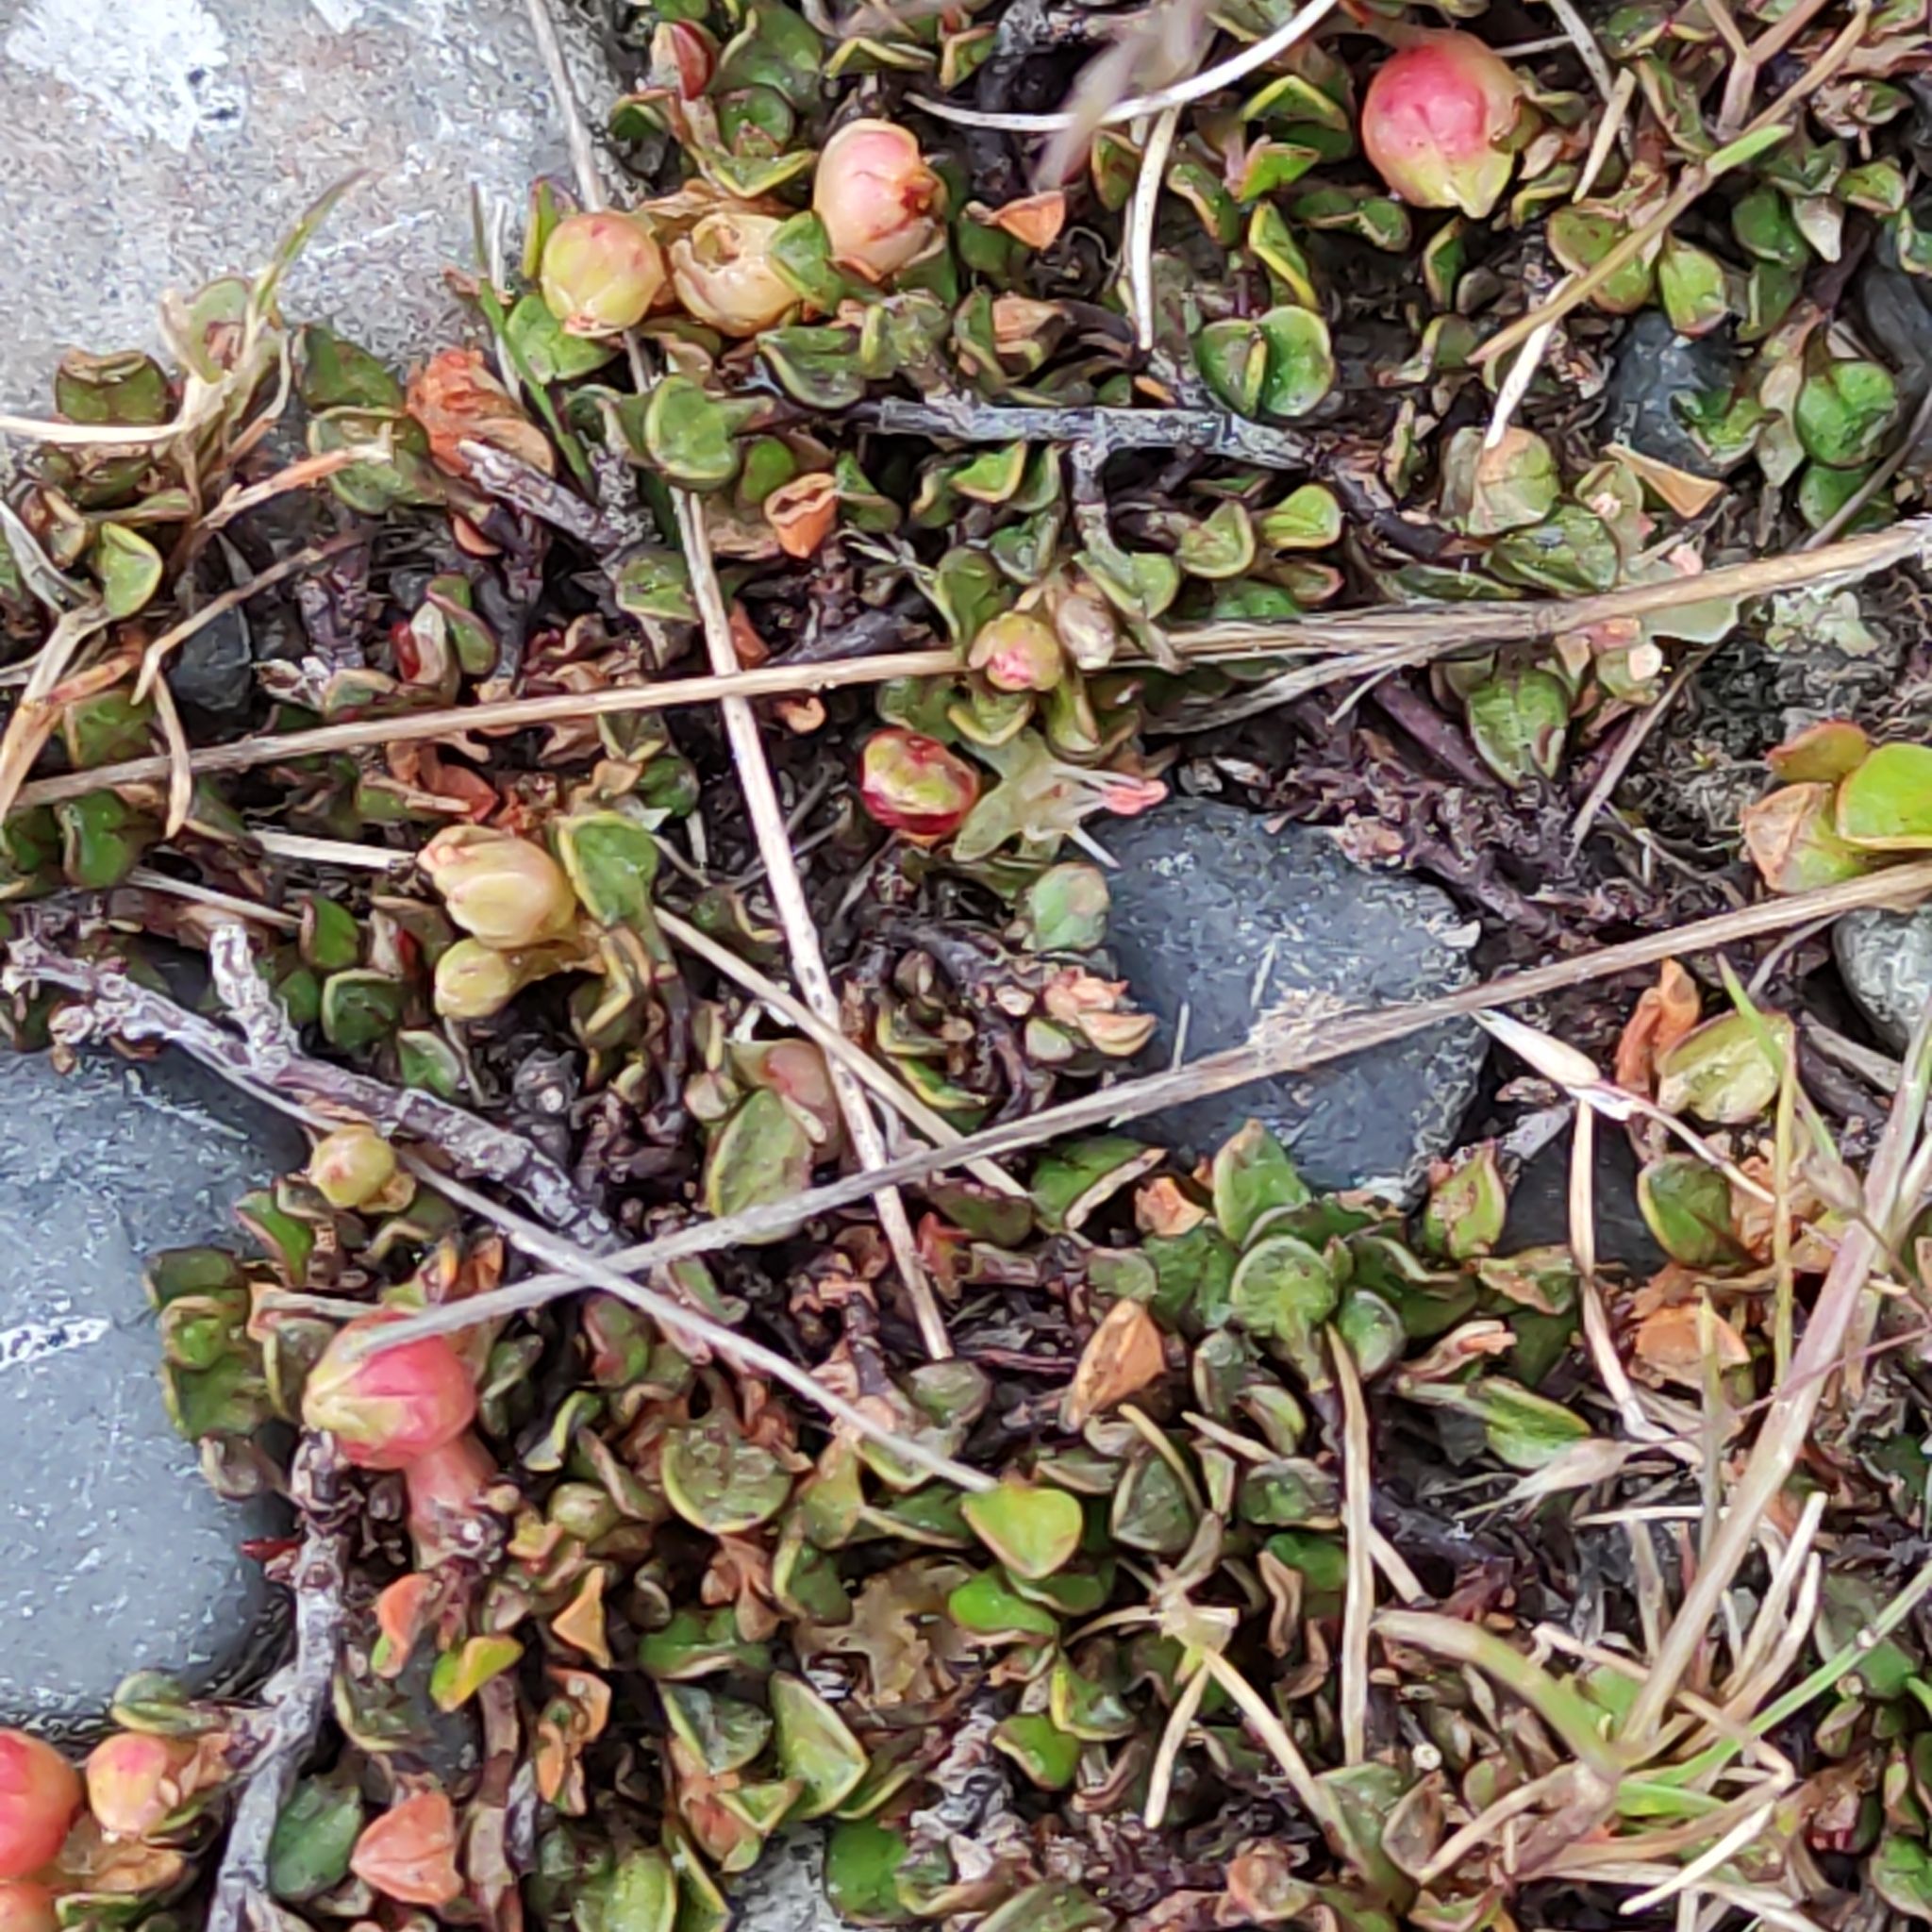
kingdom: Plantae
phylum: Tracheophyta
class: Magnoliopsida
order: Caryophyllales
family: Polygonaceae
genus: Muehlenbeckia
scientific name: Muehlenbeckia axillaris
